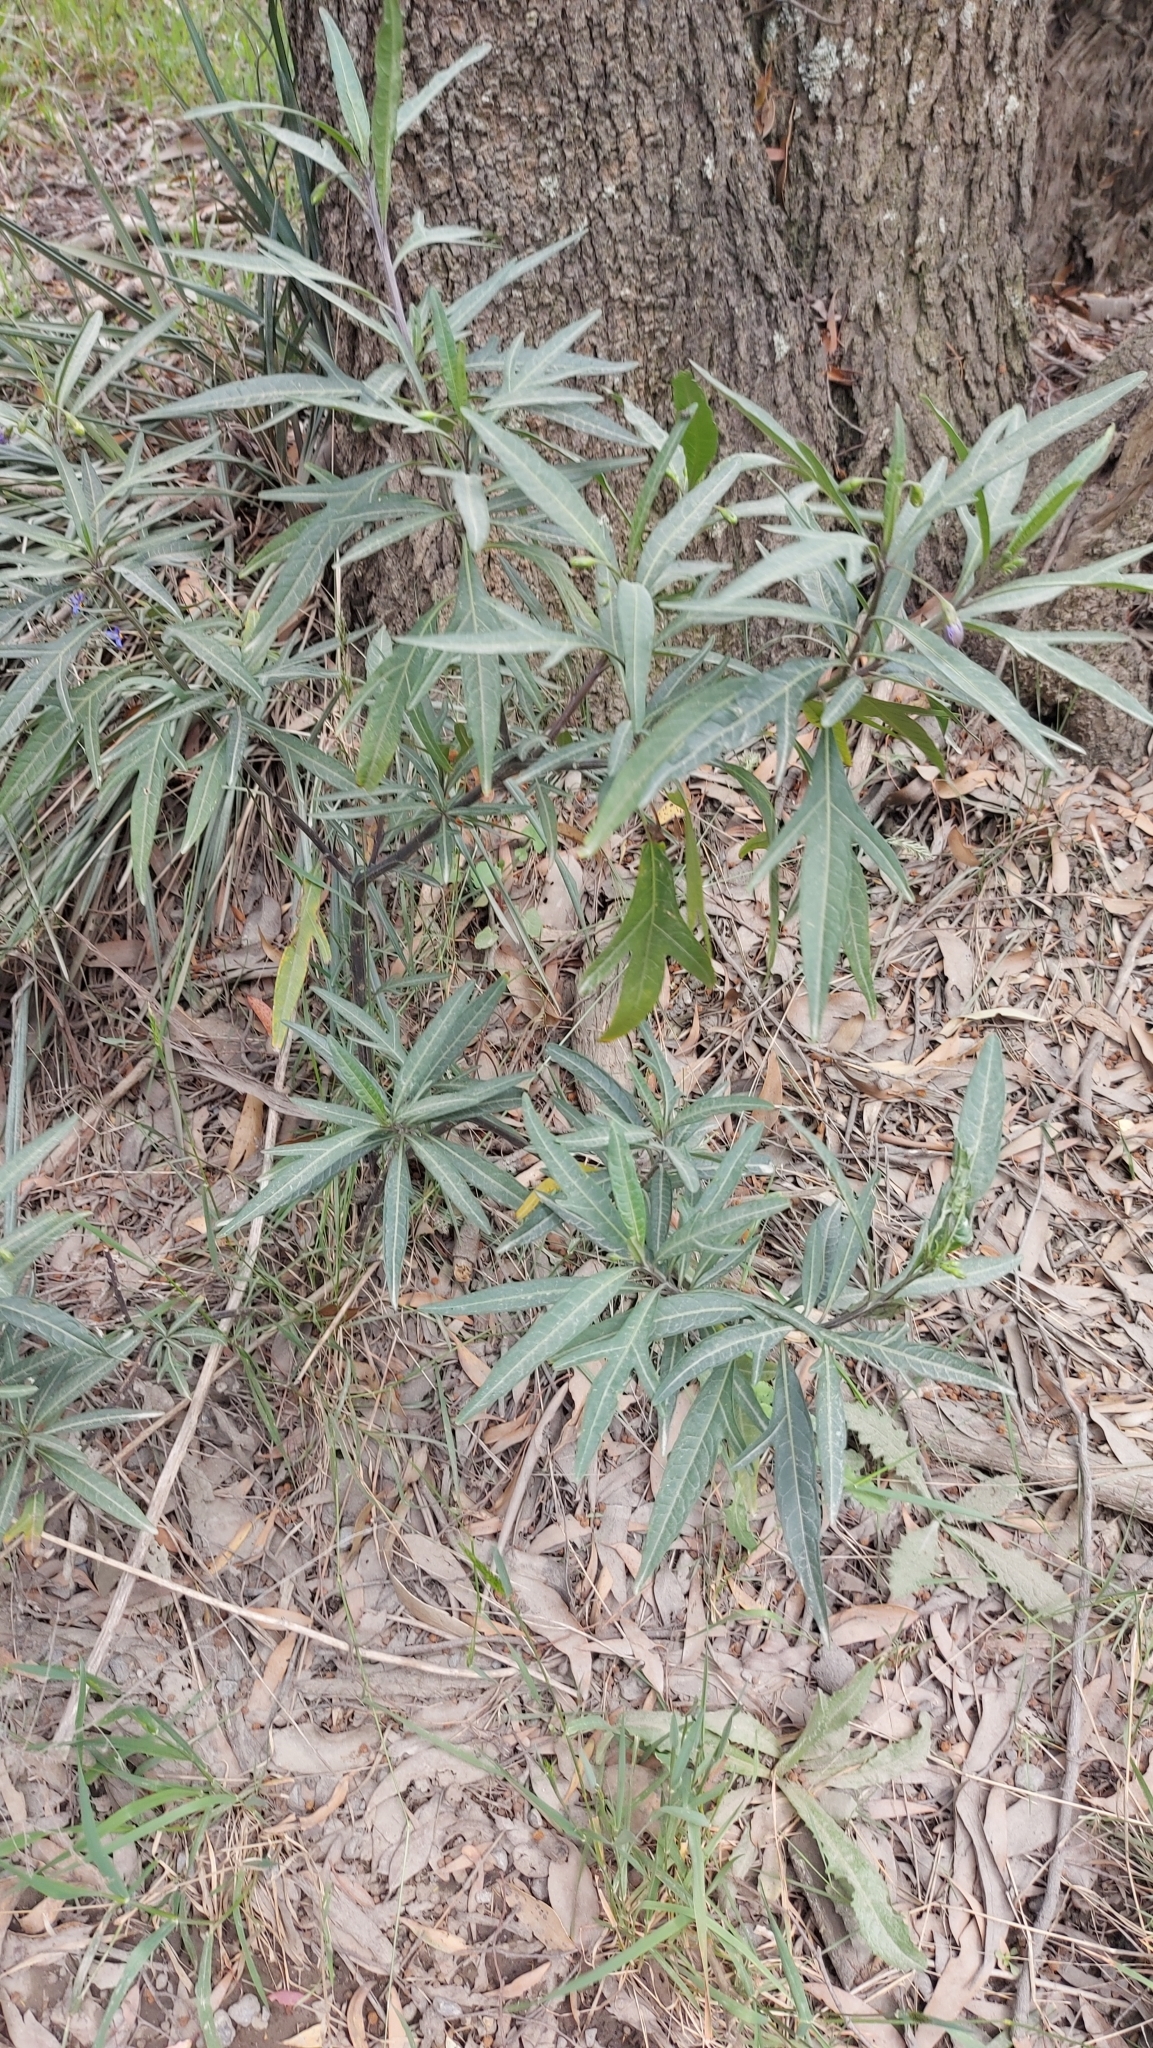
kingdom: Plantae
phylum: Tracheophyta
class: Magnoliopsida
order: Solanales
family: Solanaceae
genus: Solanum
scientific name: Solanum laciniatum
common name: Kangaroo-apple
